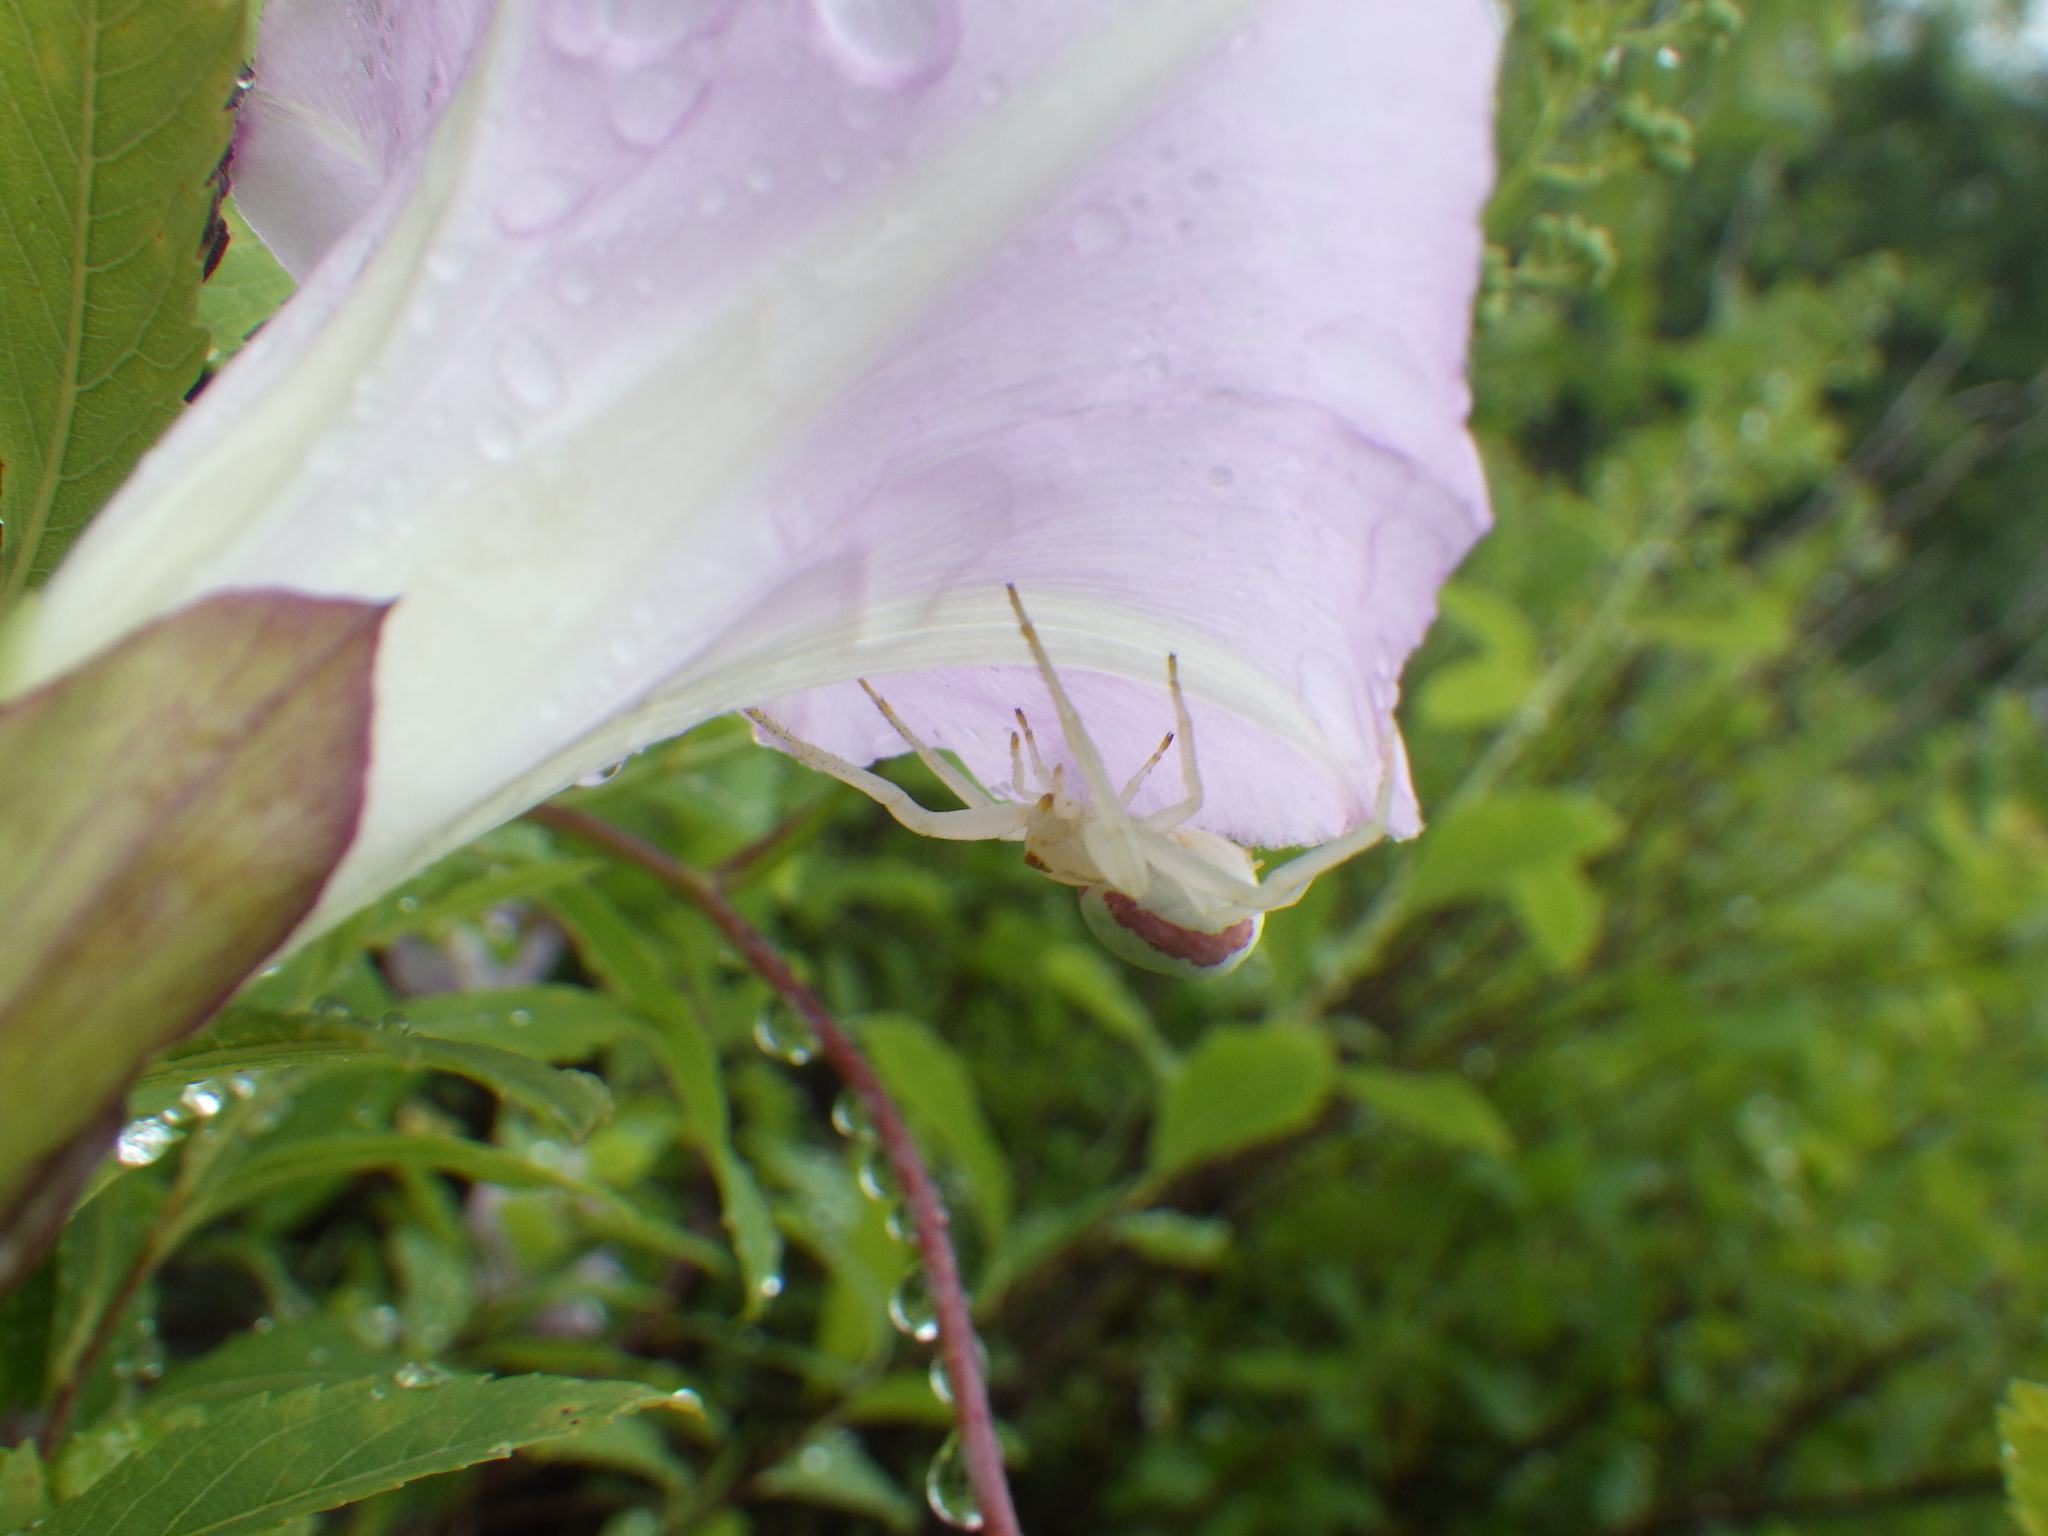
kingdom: Animalia
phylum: Arthropoda
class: Arachnida
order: Araneae
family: Thomisidae
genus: Misumena
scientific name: Misumena vatia
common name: Goldenrod crab spider
